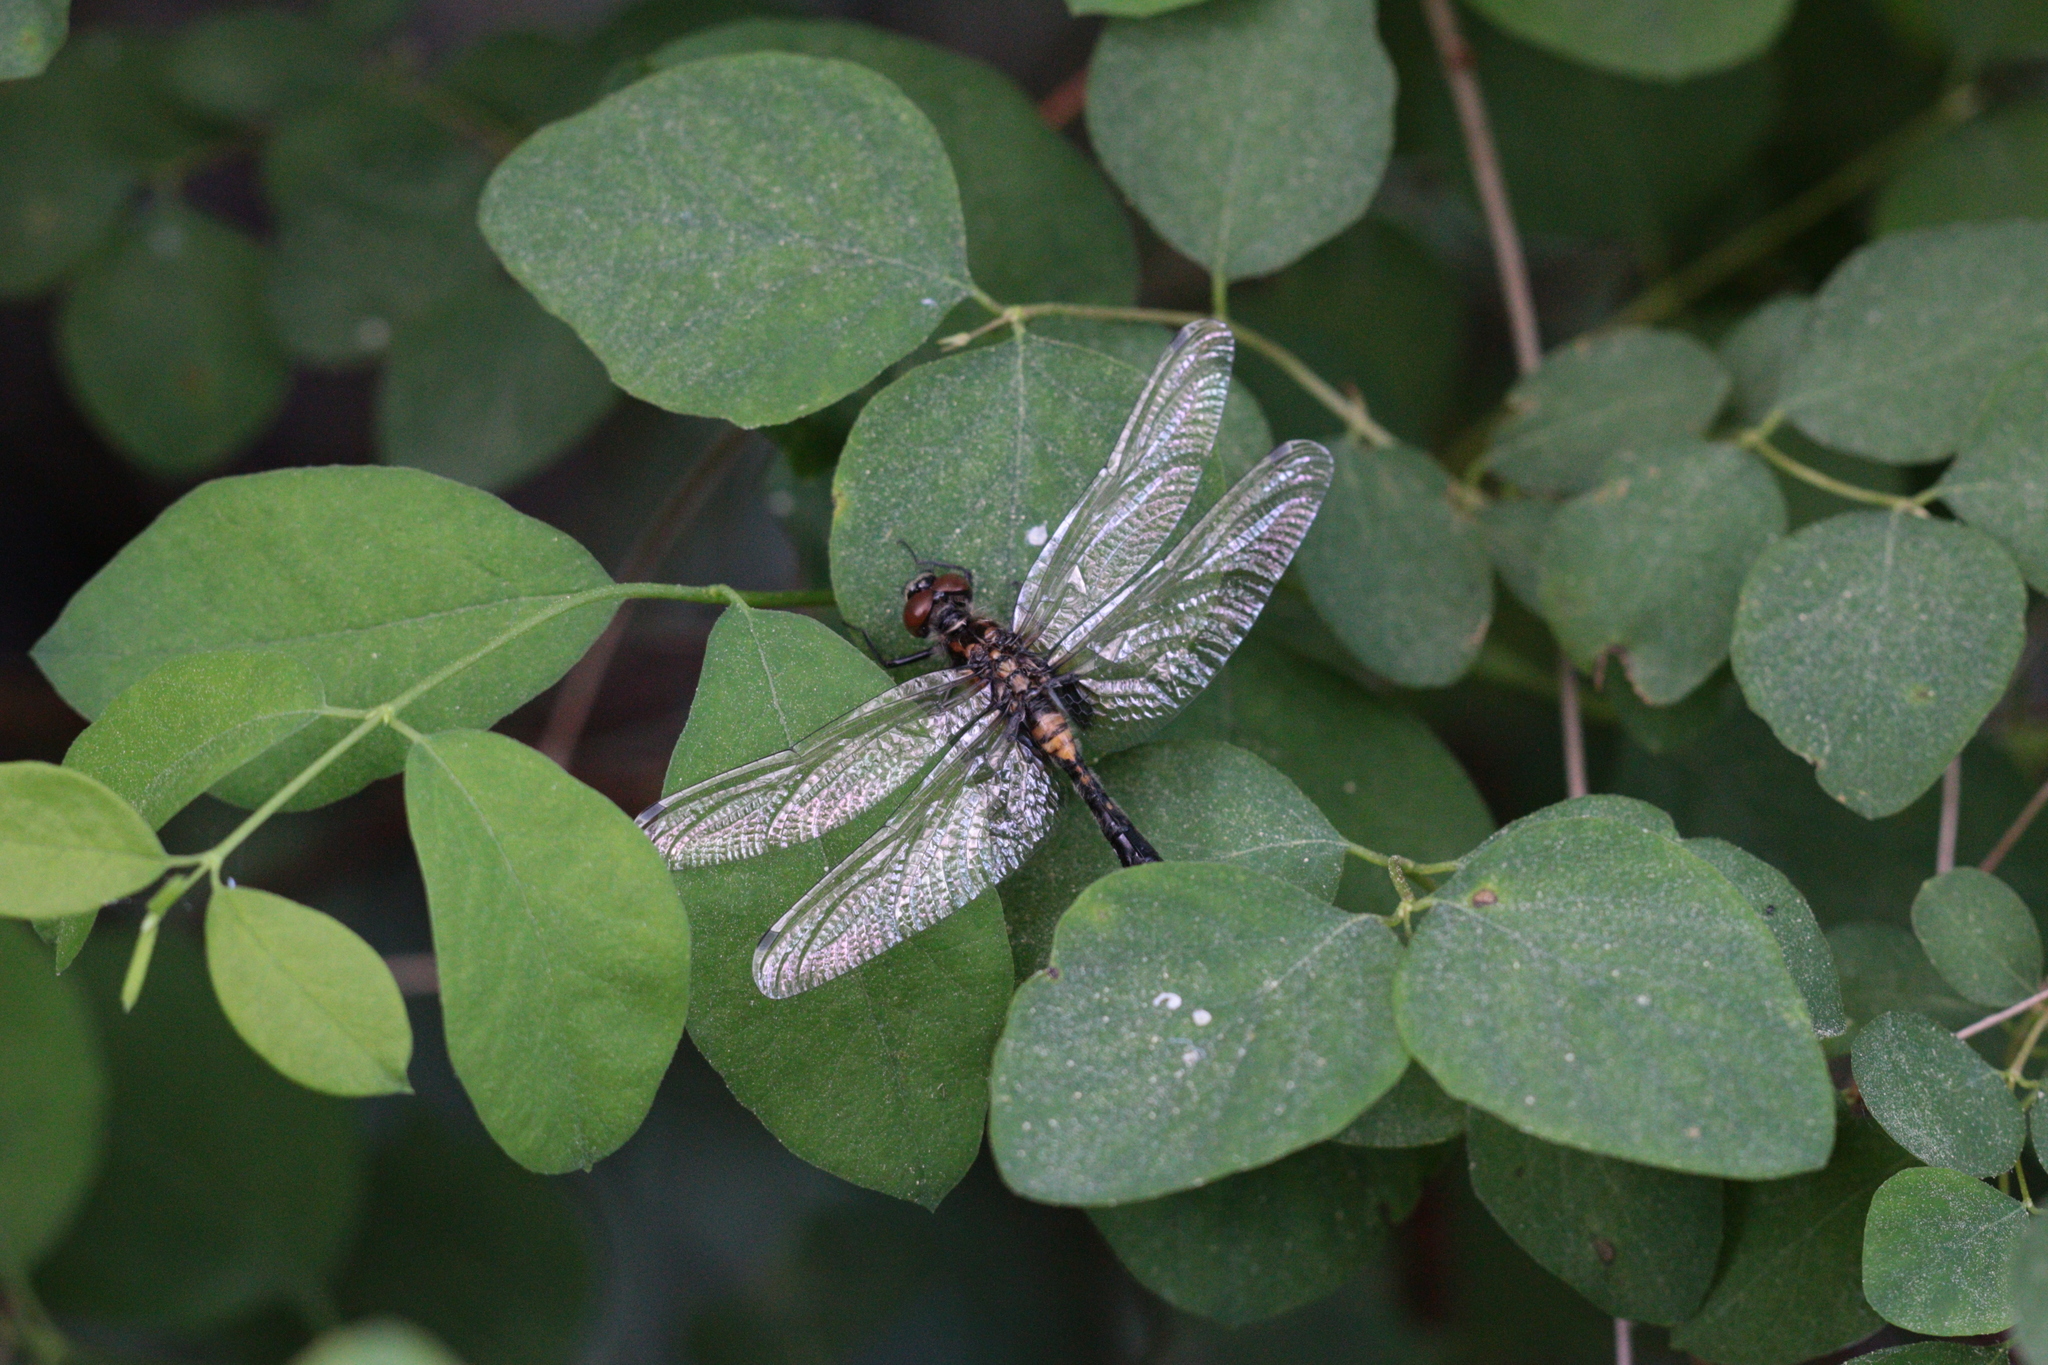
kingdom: Animalia
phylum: Arthropoda
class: Insecta
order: Odonata
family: Libellulidae
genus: Leucorrhinia
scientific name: Leucorrhinia dubia
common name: White-faced darter
